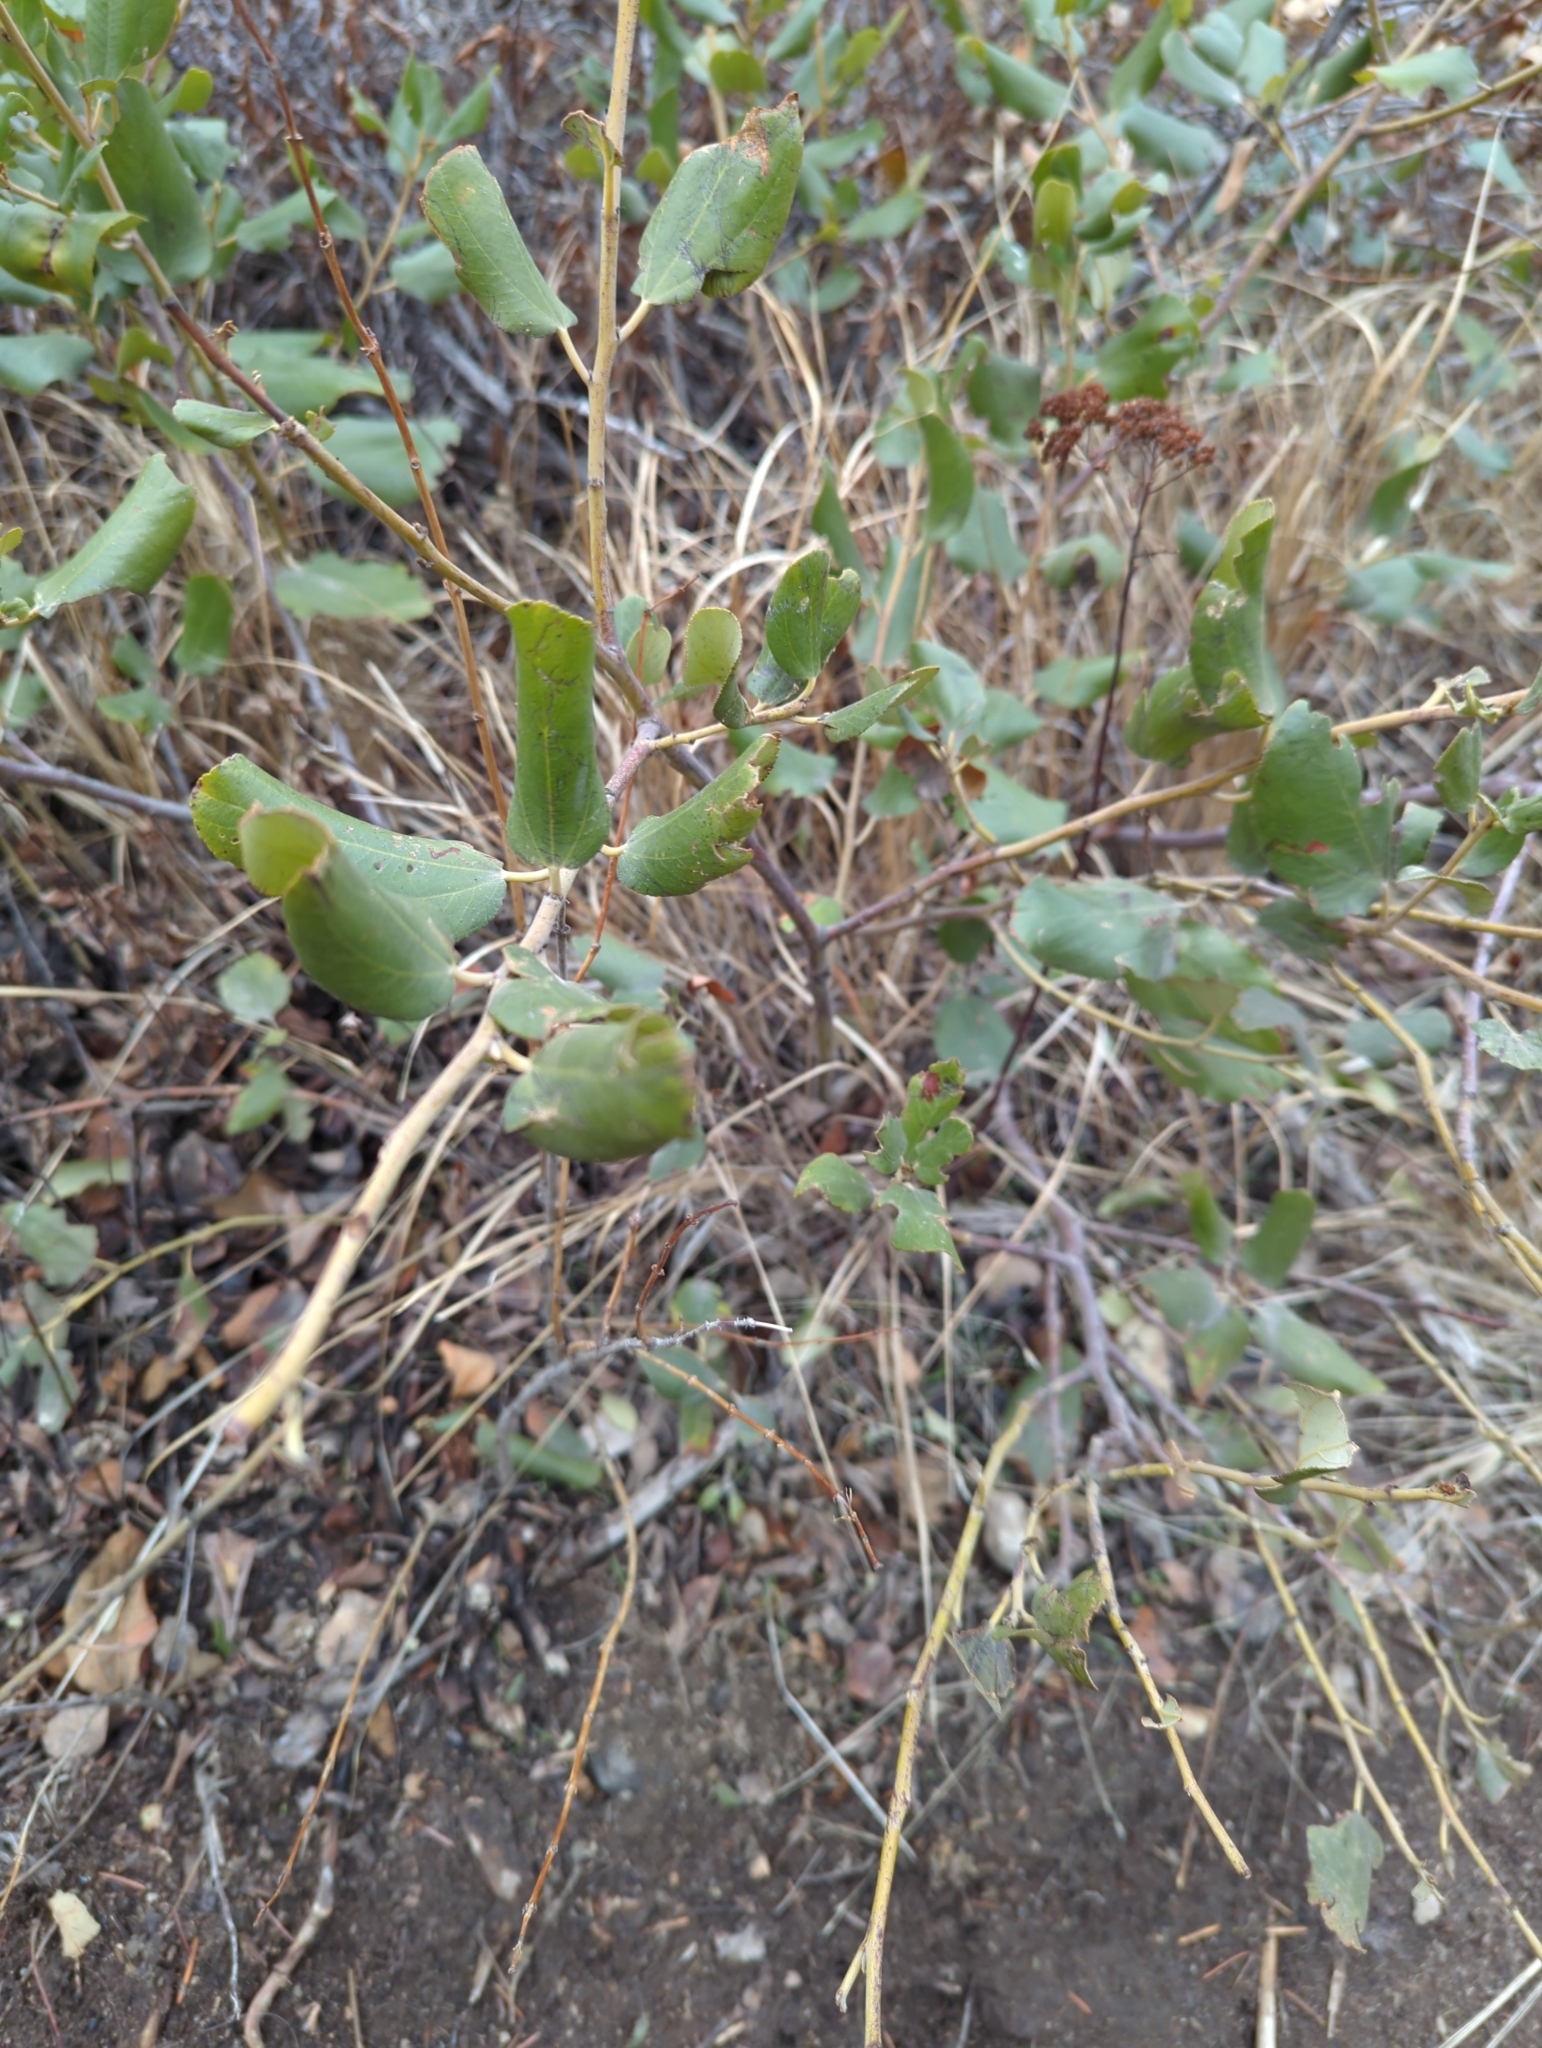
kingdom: Plantae
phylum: Tracheophyta
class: Magnoliopsida
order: Rosales
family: Rhamnaceae
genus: Ceanothus
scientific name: Ceanothus velutinus
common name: Snowbrush
